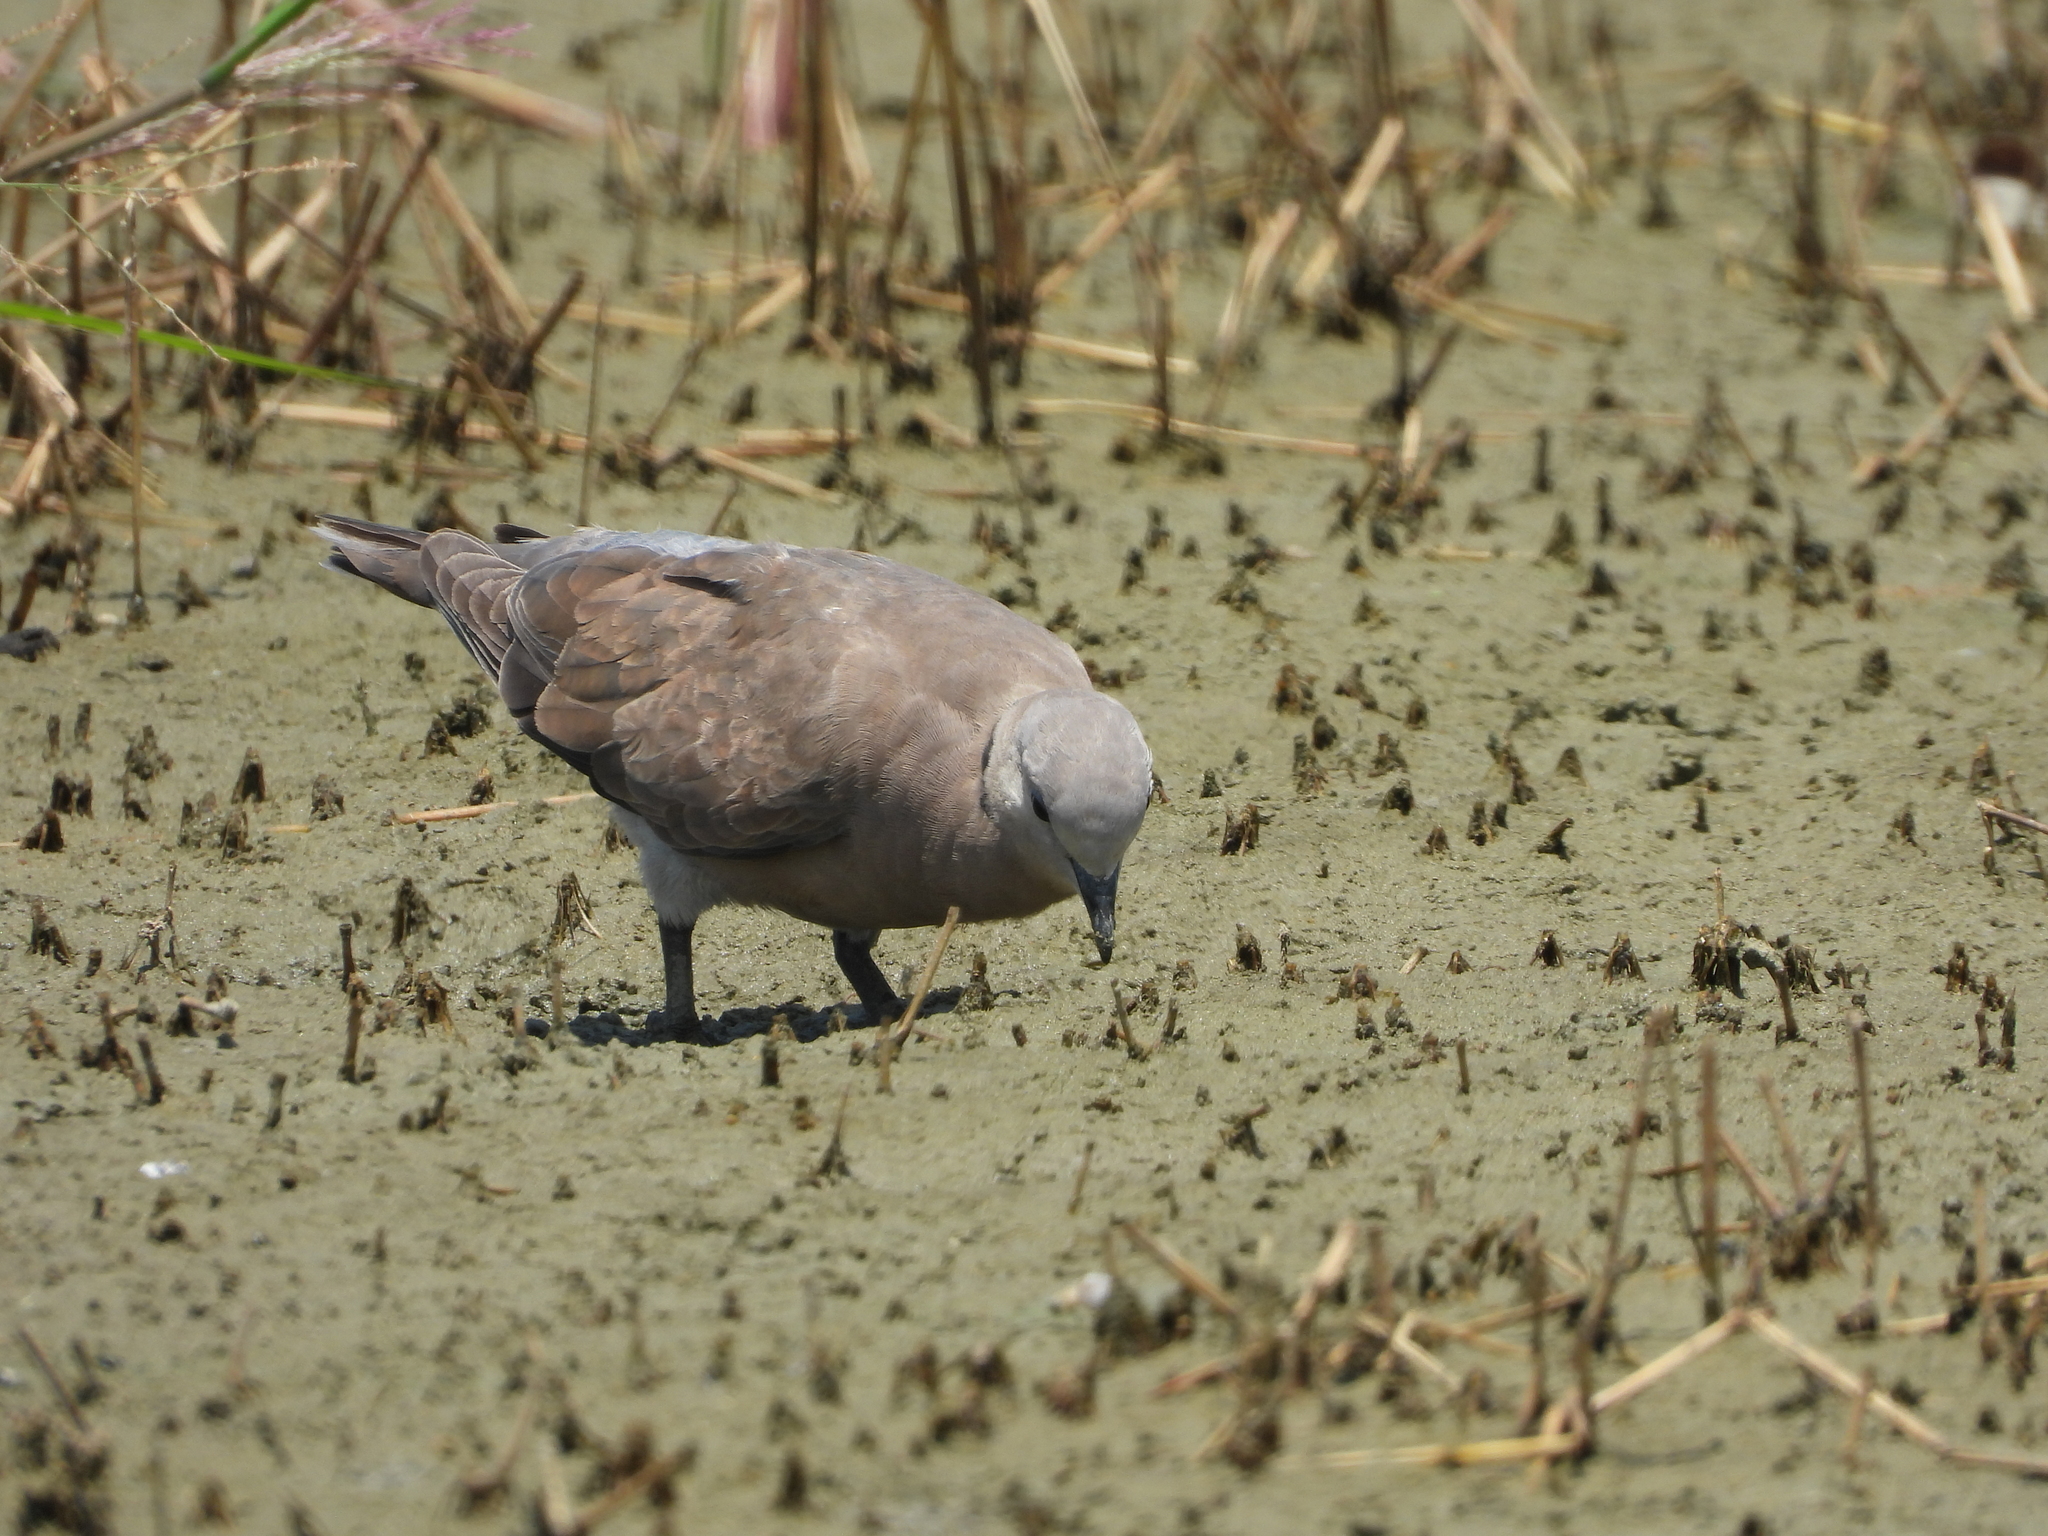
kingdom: Animalia
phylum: Chordata
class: Aves
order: Columbiformes
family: Columbidae
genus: Streptopelia
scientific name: Streptopelia tranquebarica
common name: Red turtle dove
